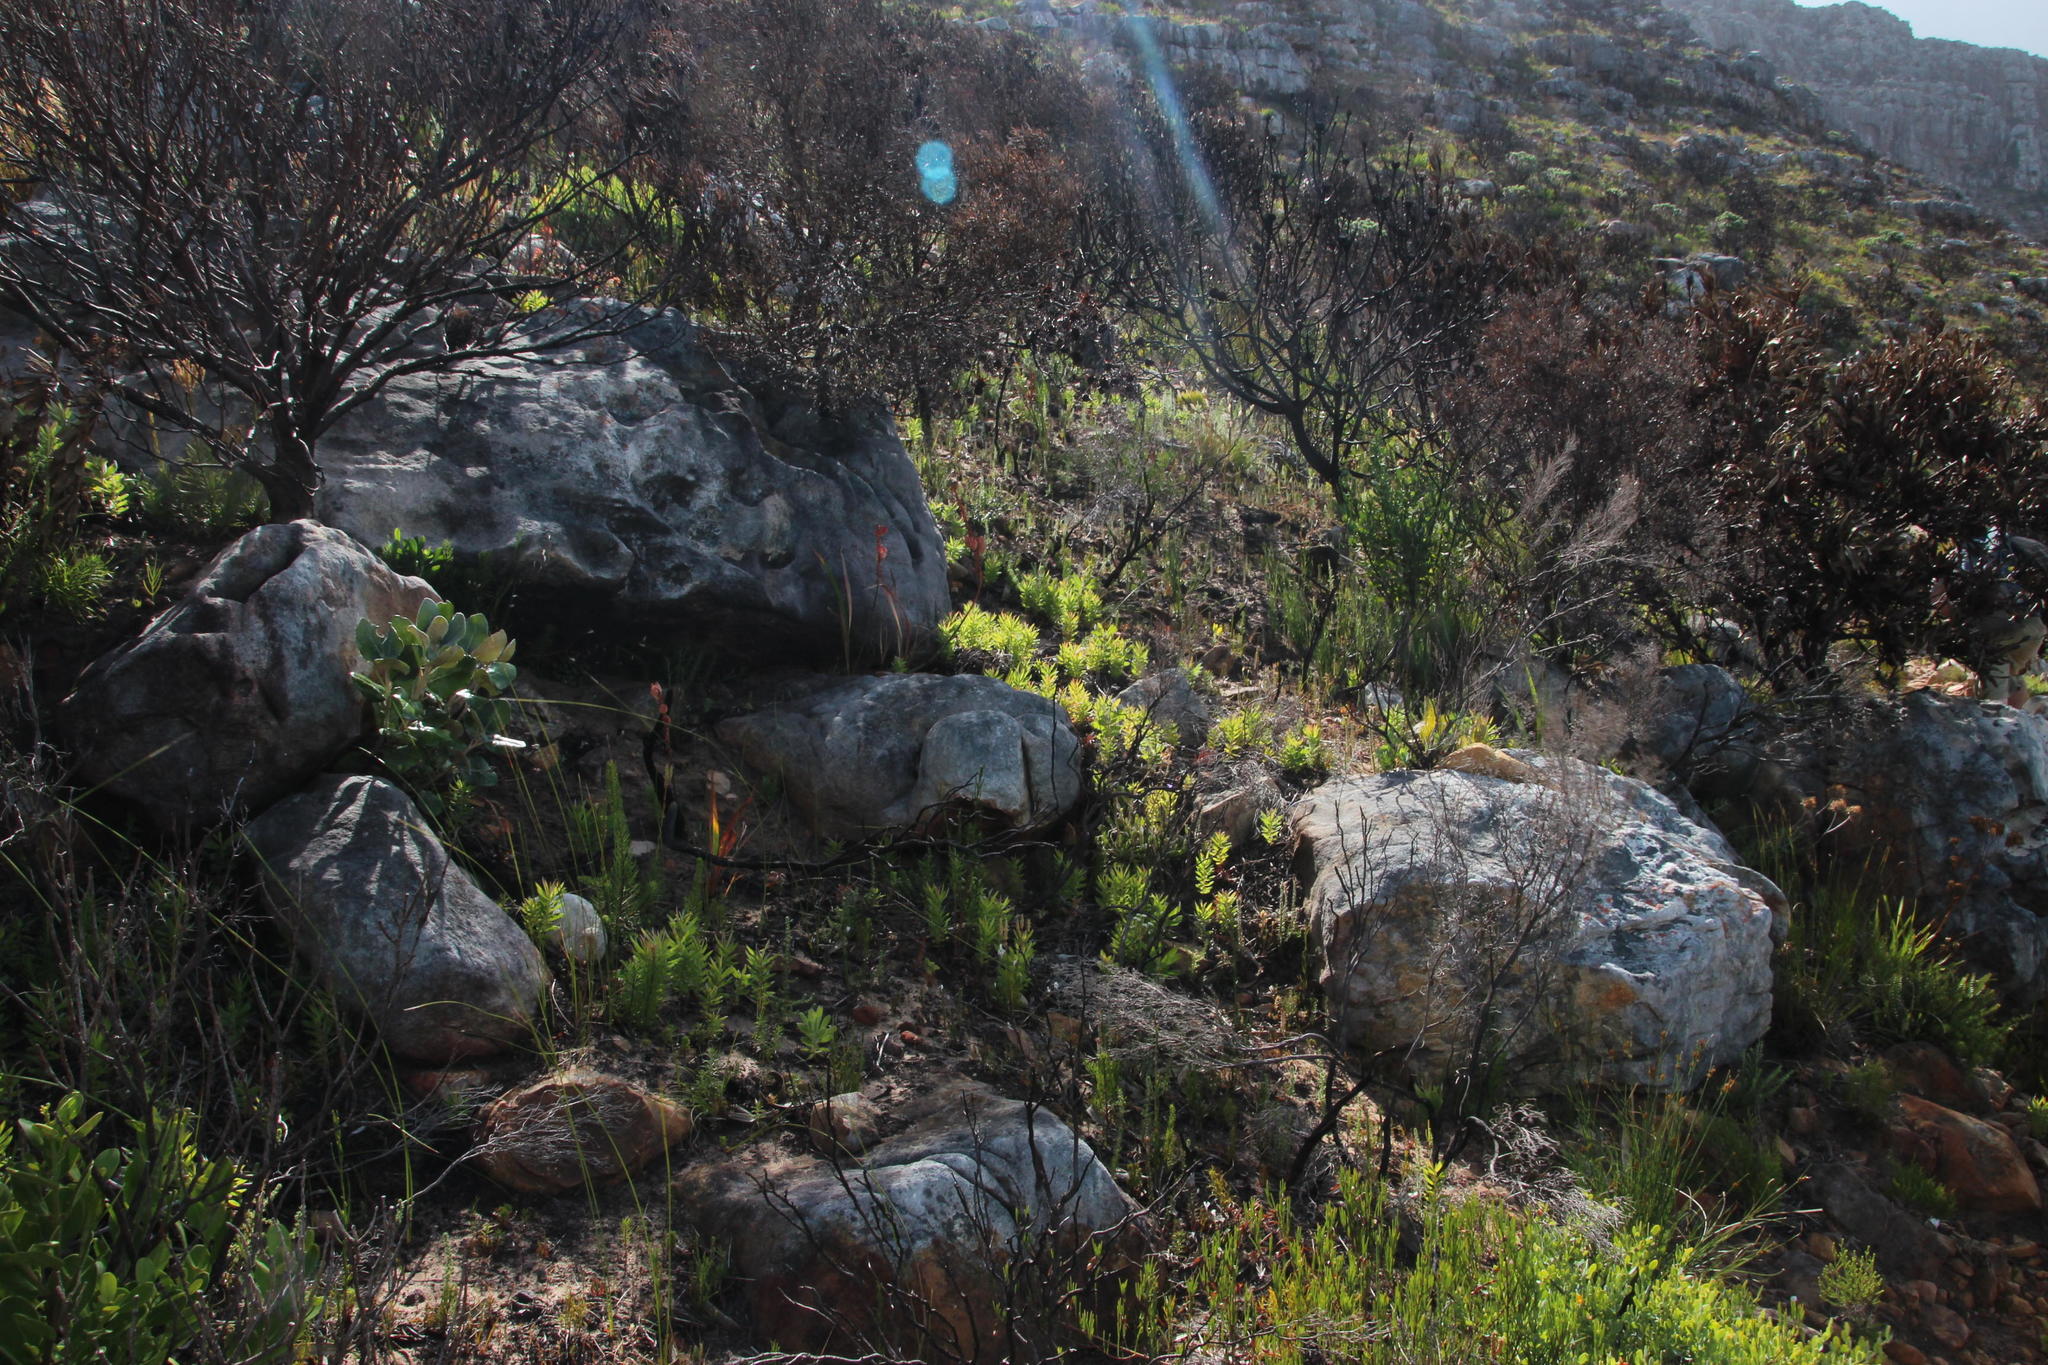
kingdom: Plantae
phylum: Tracheophyta
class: Magnoliopsida
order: Proteales
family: Proteaceae
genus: Leucadendron
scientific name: Leucadendron xanthoconus
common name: Sickle-leaf conebush
